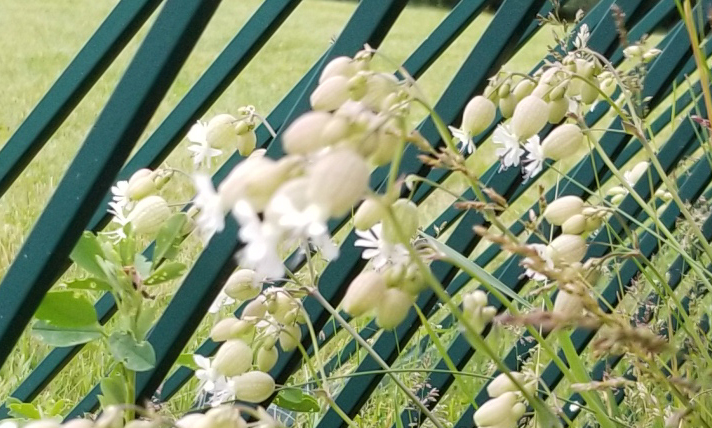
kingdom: Plantae
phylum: Tracheophyta
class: Magnoliopsida
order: Caryophyllales
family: Caryophyllaceae
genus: Silene
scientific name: Silene vulgaris
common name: Bladder campion
